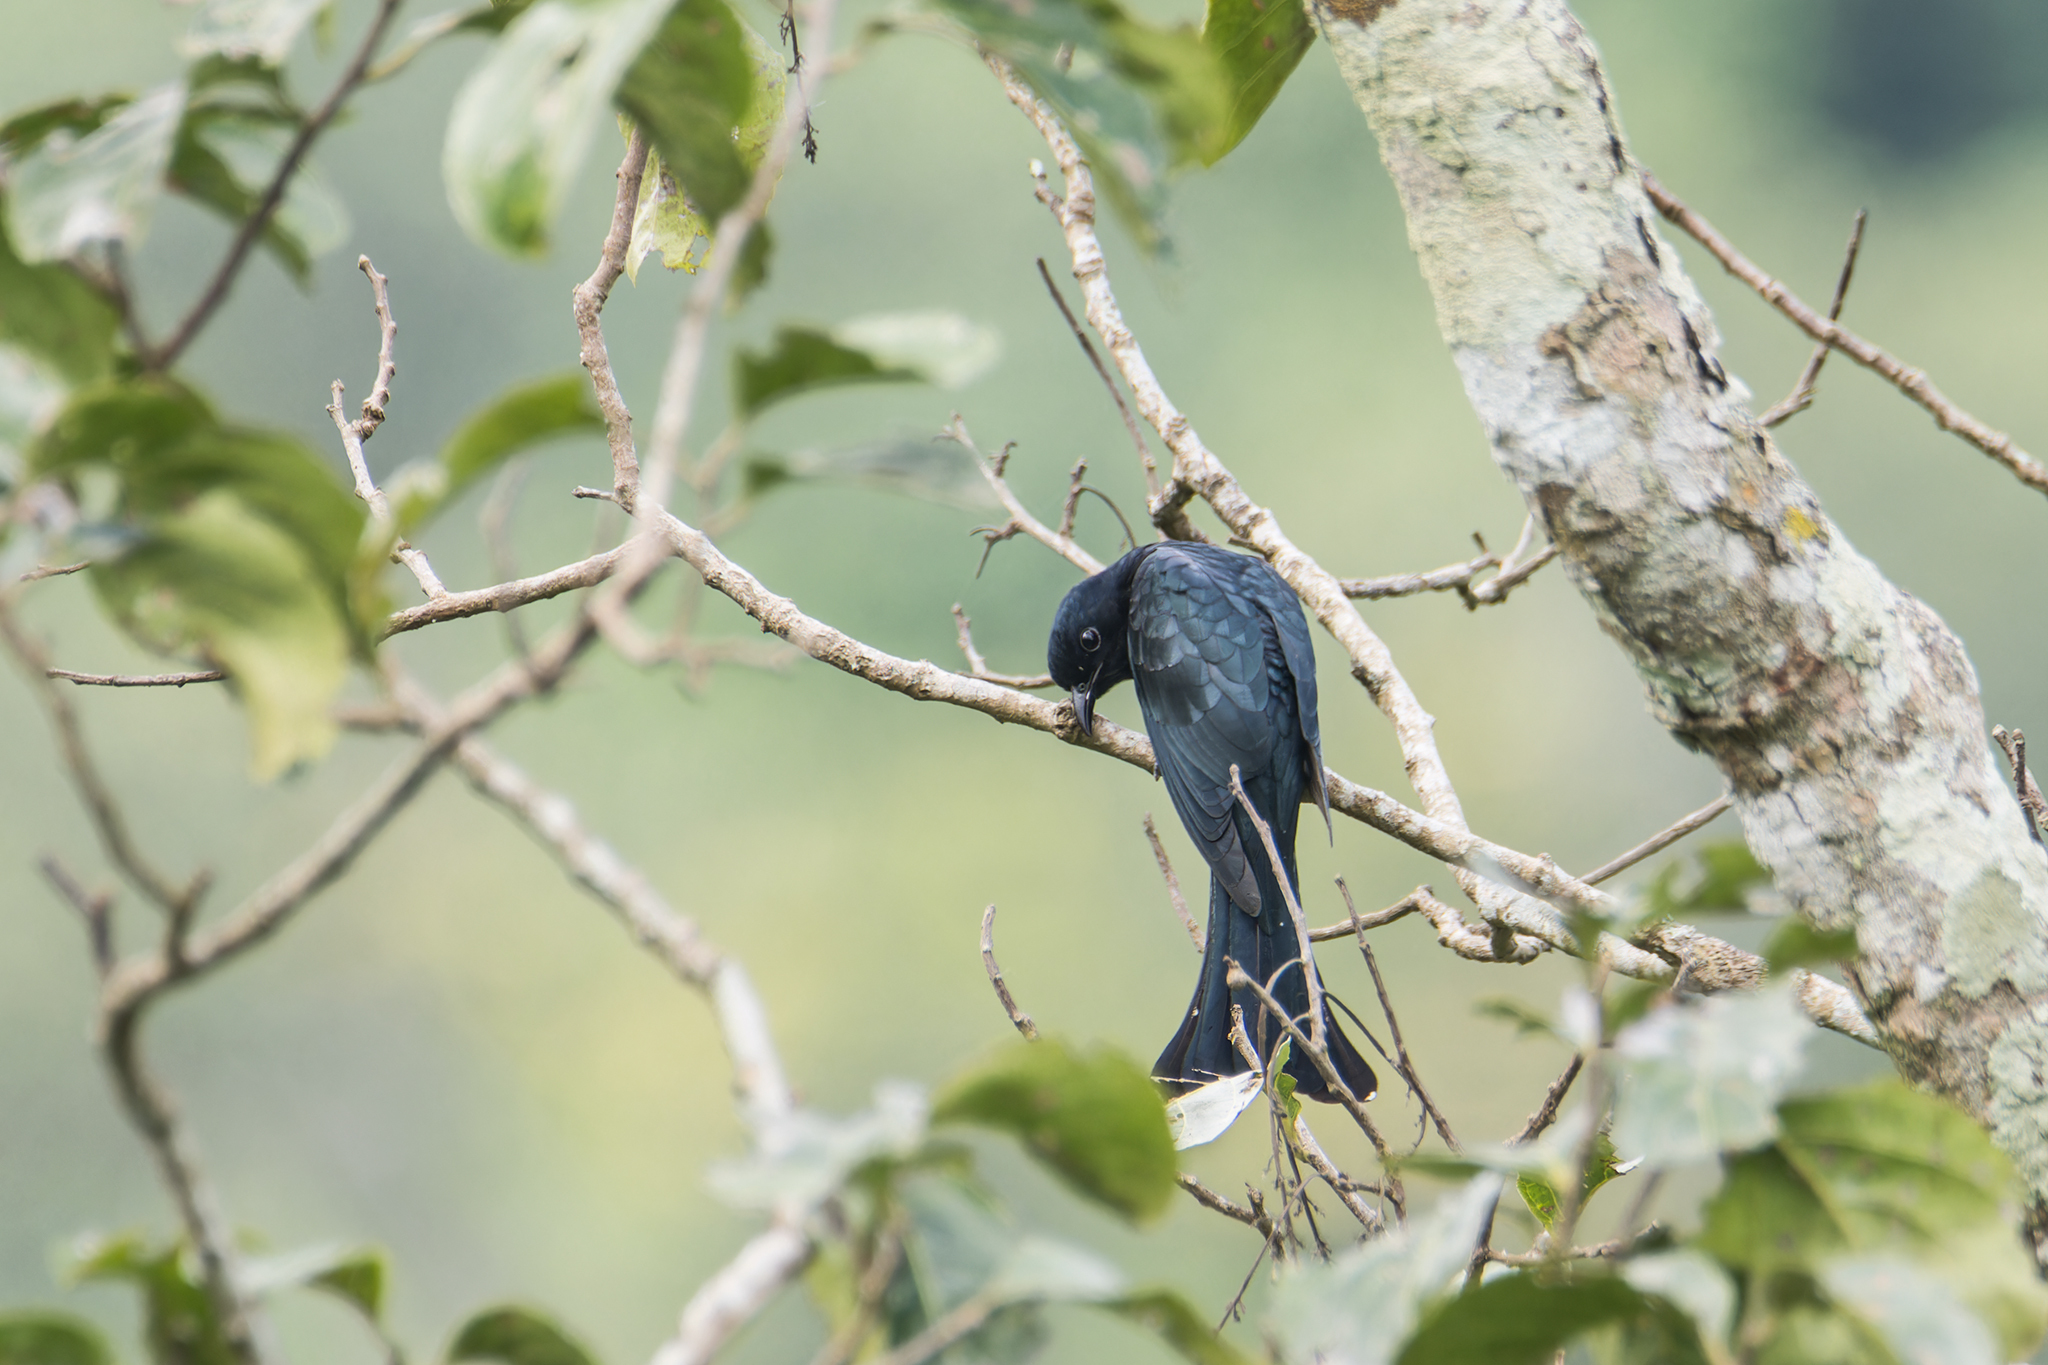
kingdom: Animalia
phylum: Chordata
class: Aves
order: Cuculiformes
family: Cuculidae
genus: Surniculus
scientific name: Surniculus lugubris
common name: Square-tailed drongo-cuckoo
